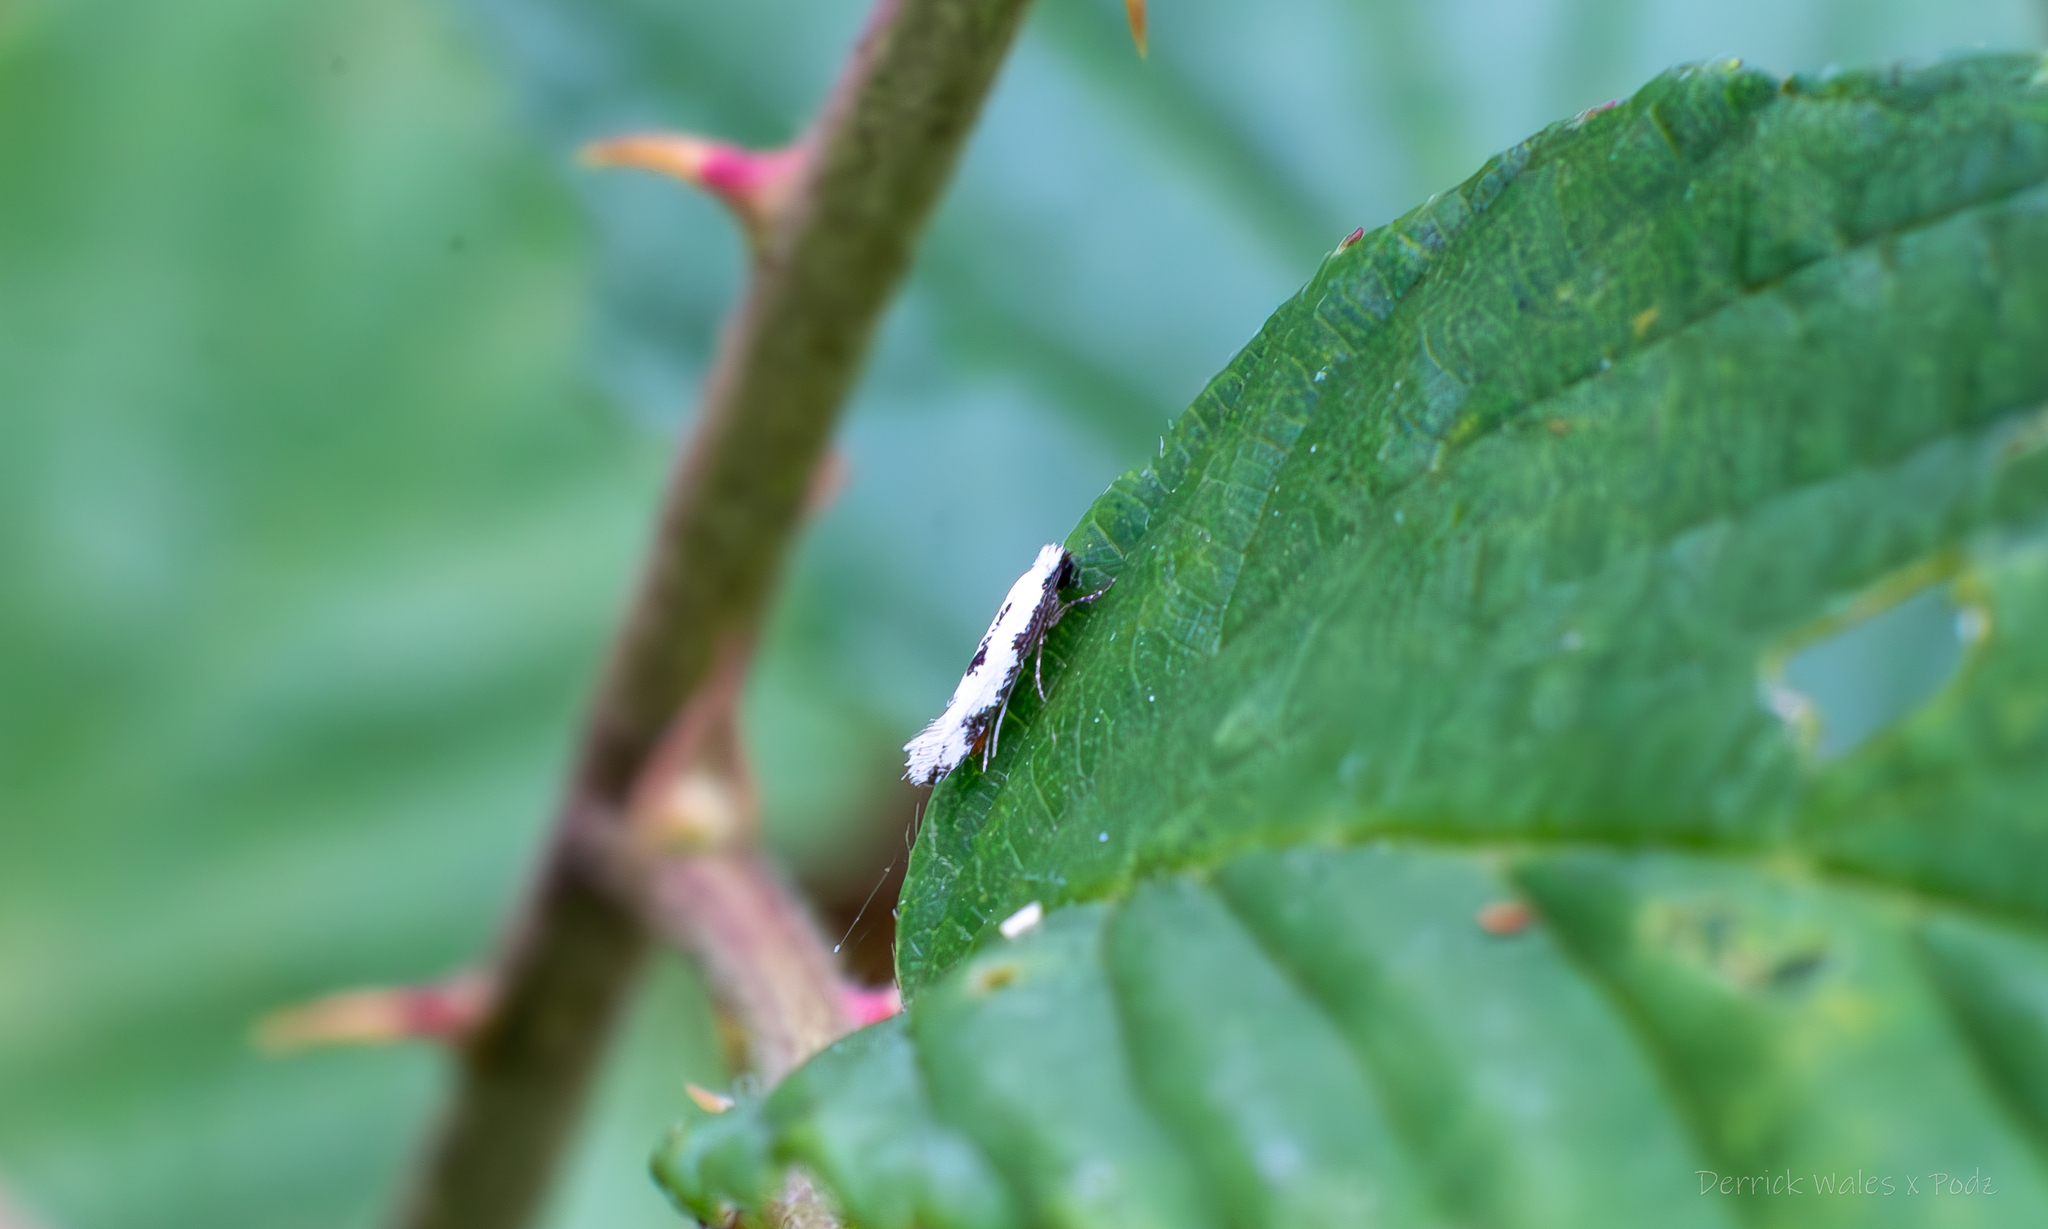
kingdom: Animalia
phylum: Arthropoda
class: Insecta
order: Lepidoptera
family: Meessiidae
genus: Mea
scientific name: Mea bipunctella
